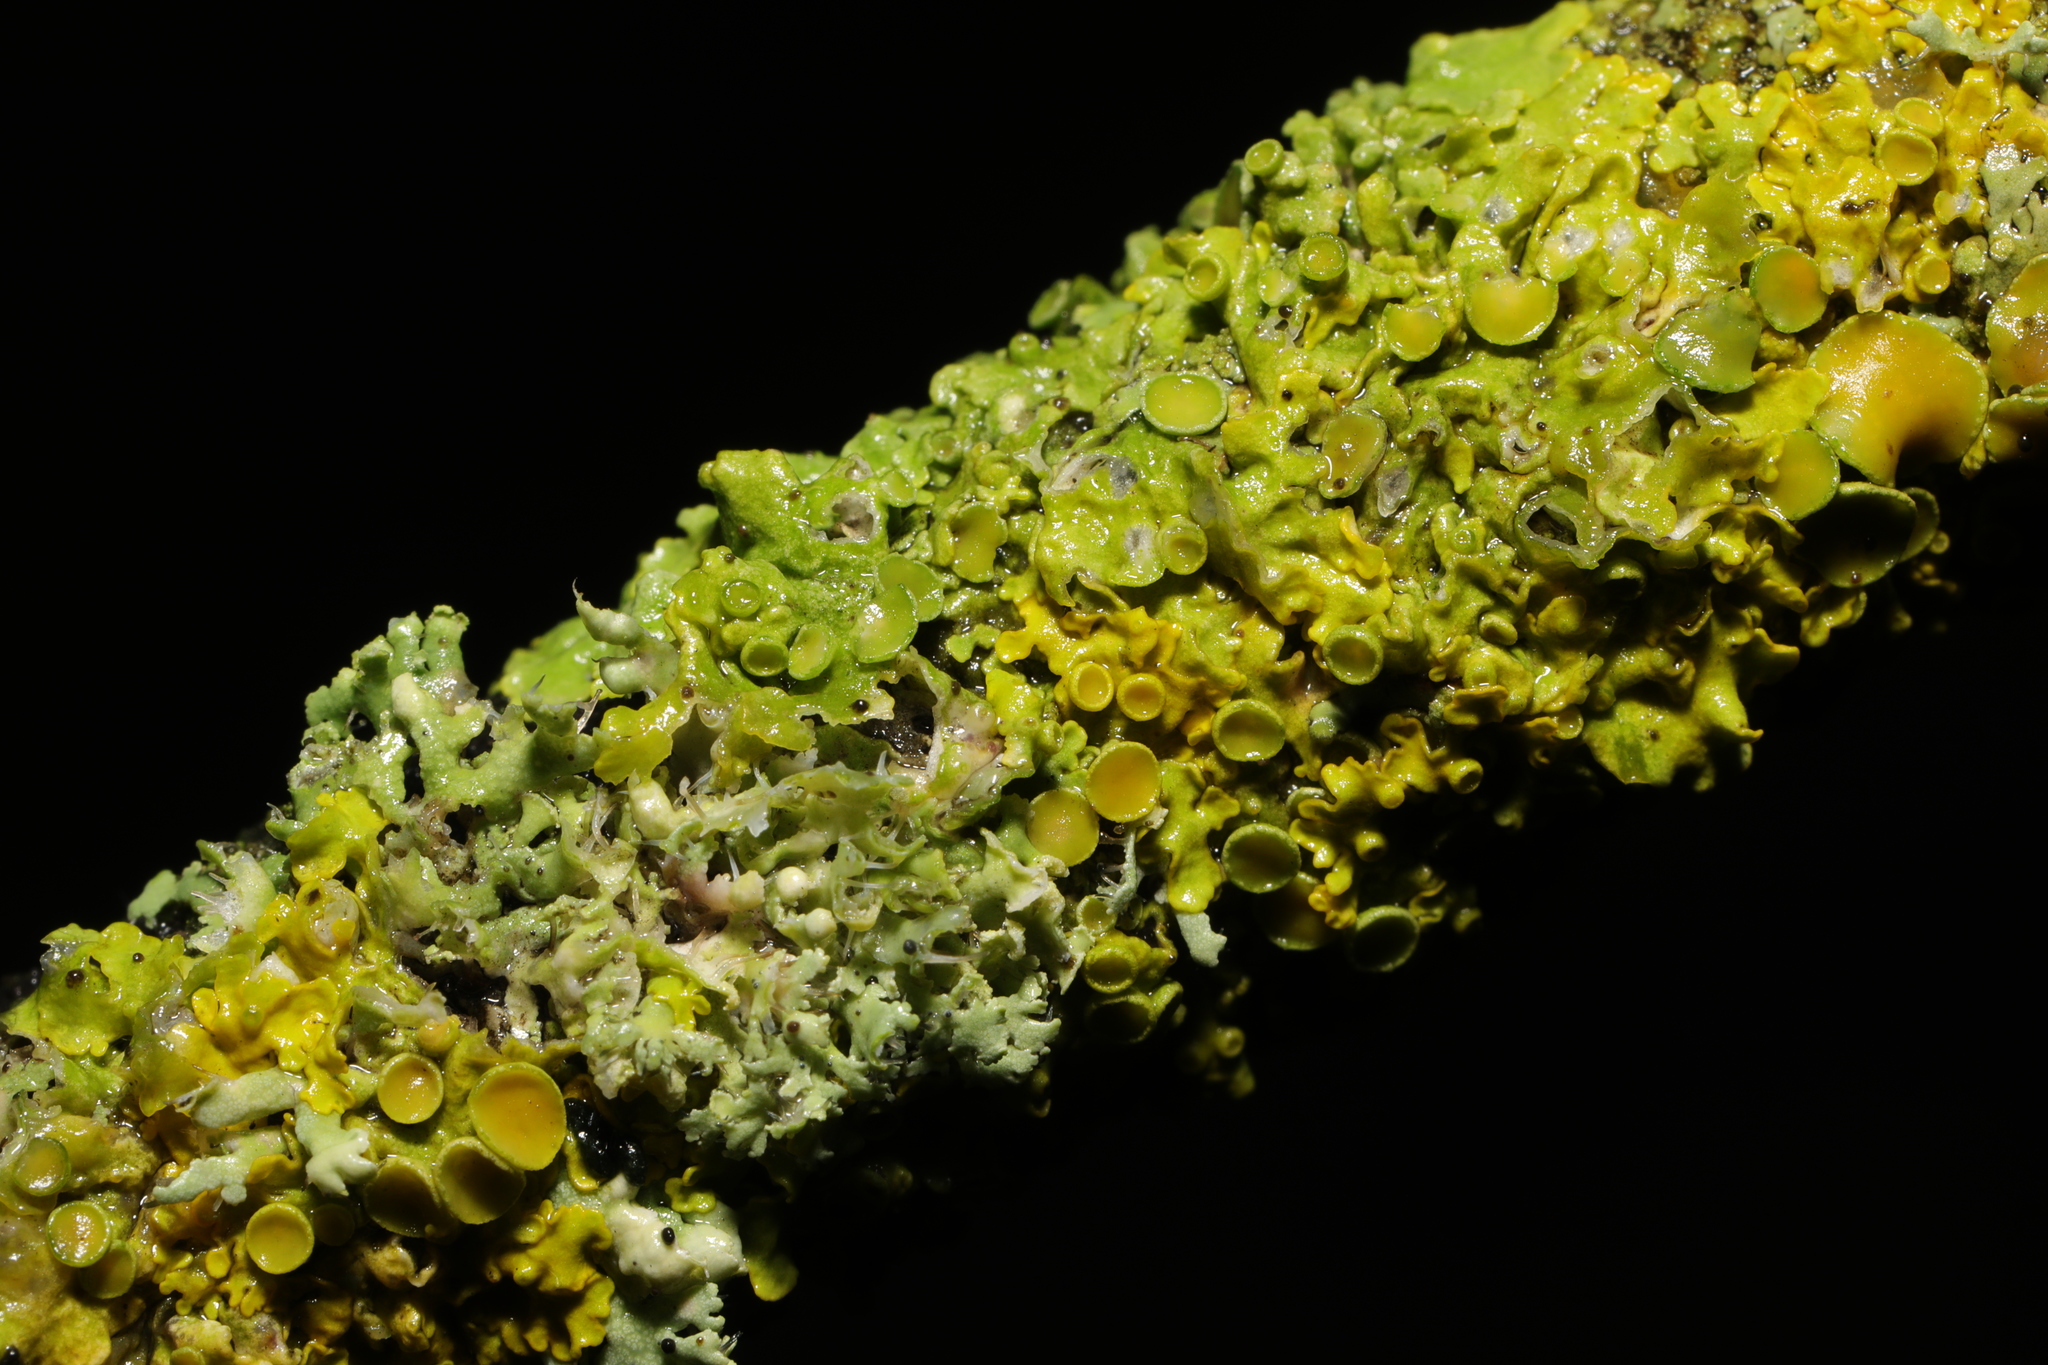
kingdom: Fungi
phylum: Ascomycota
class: Lecanoromycetes
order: Teloschistales
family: Teloschistaceae
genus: Xanthoria
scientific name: Xanthoria parietina
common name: Common orange lichen
